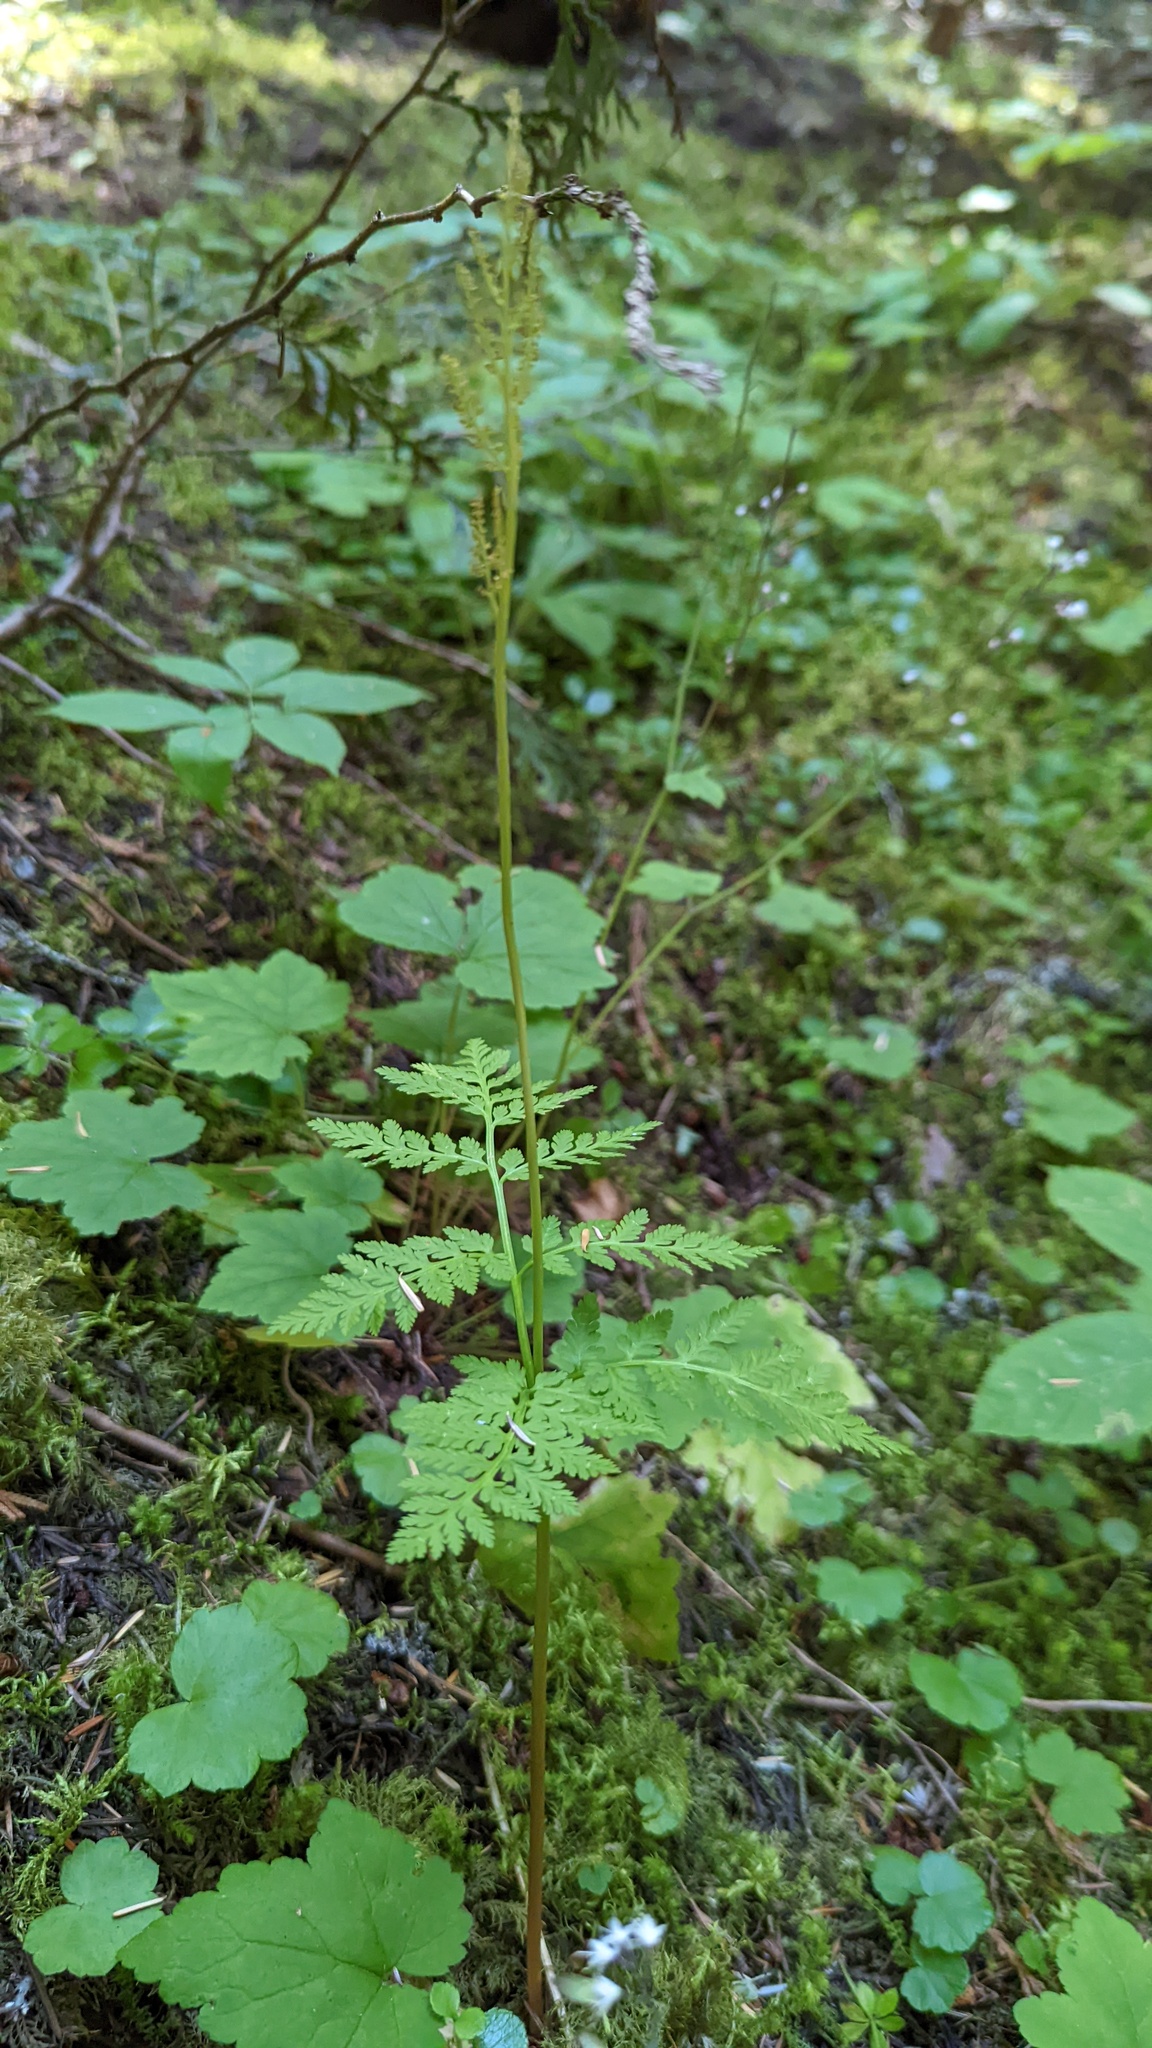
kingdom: Plantae
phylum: Tracheophyta
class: Polypodiopsida
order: Ophioglossales
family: Ophioglossaceae
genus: Botrypus
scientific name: Botrypus virginianus
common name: Common grapefern
